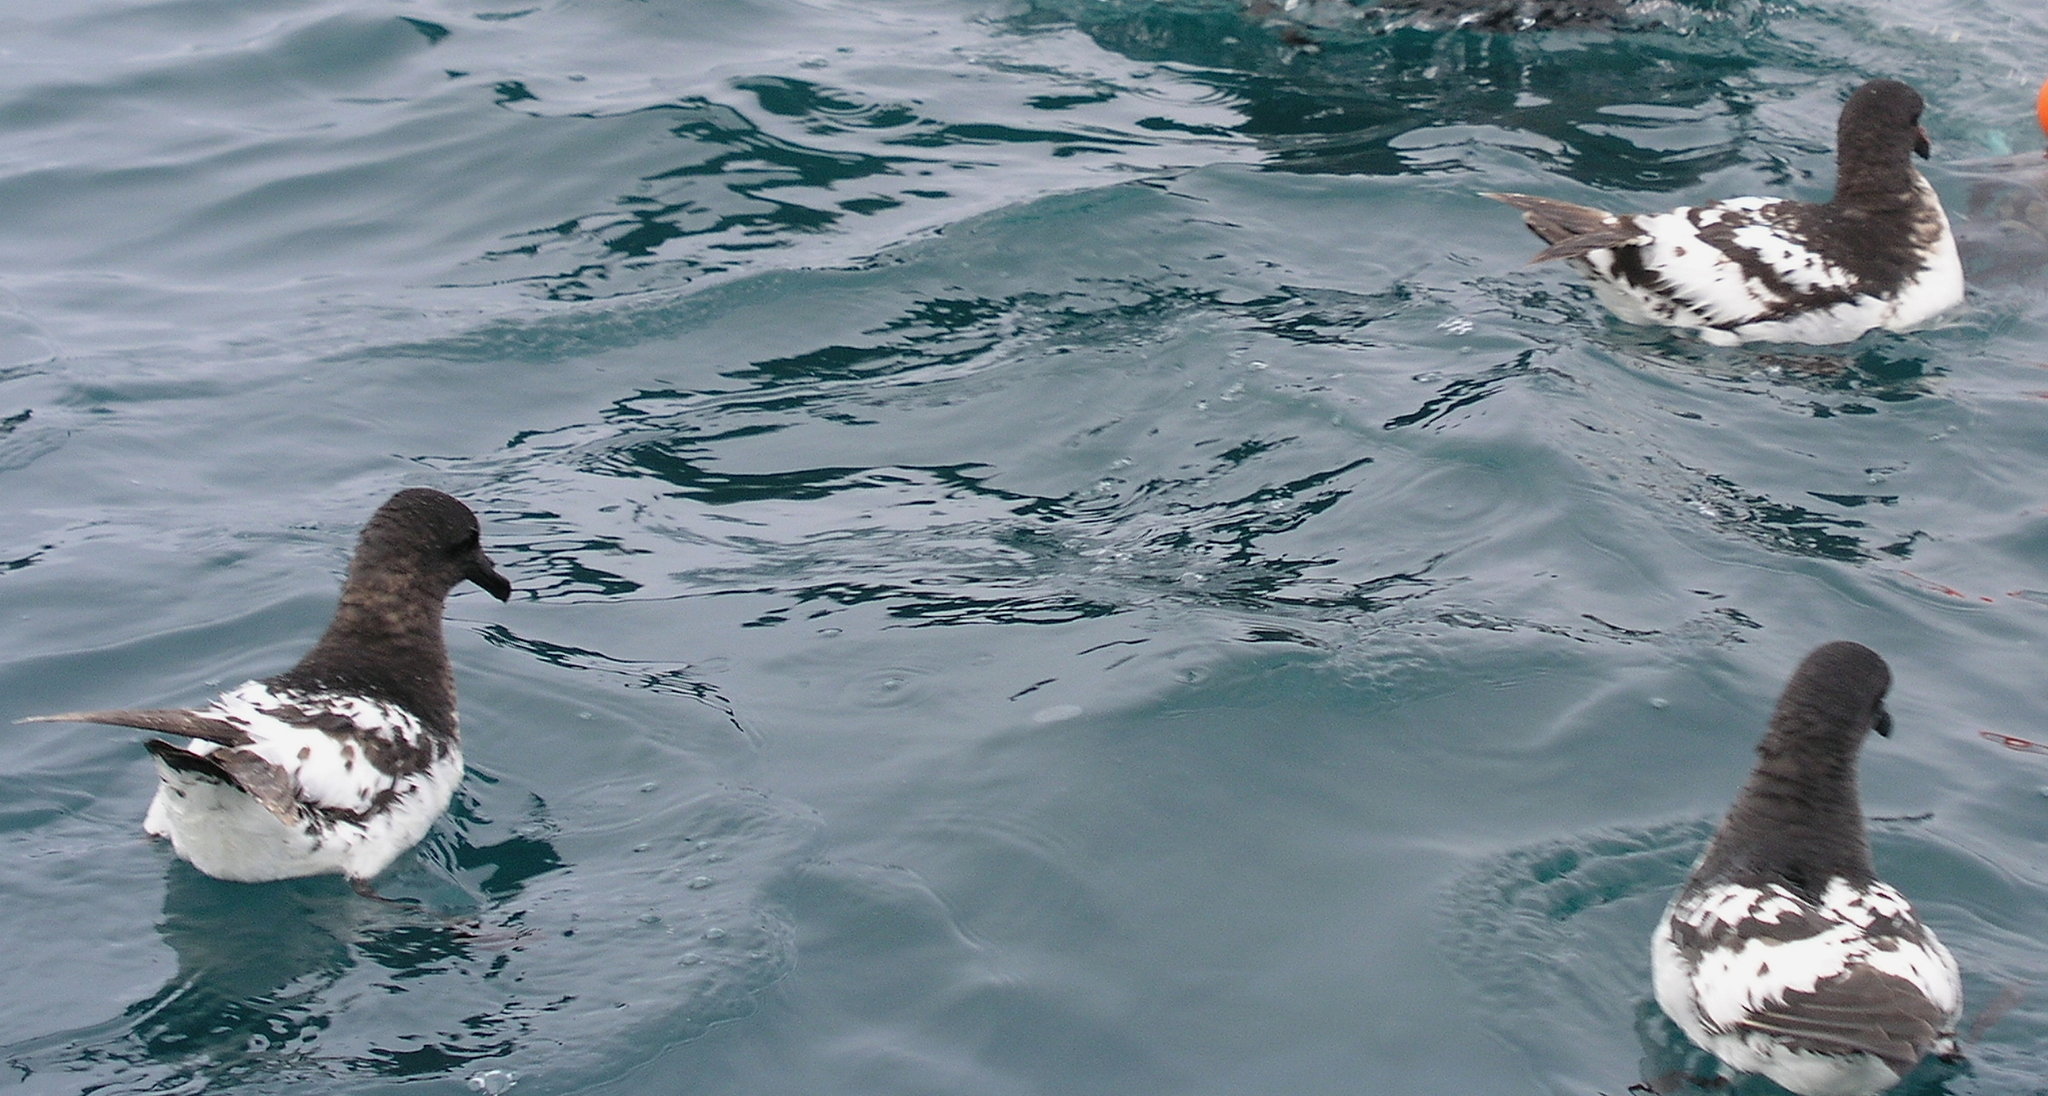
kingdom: Animalia
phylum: Chordata
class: Aves
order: Procellariiformes
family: Procellariidae
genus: Daption
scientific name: Daption capense
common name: Cape petrel
